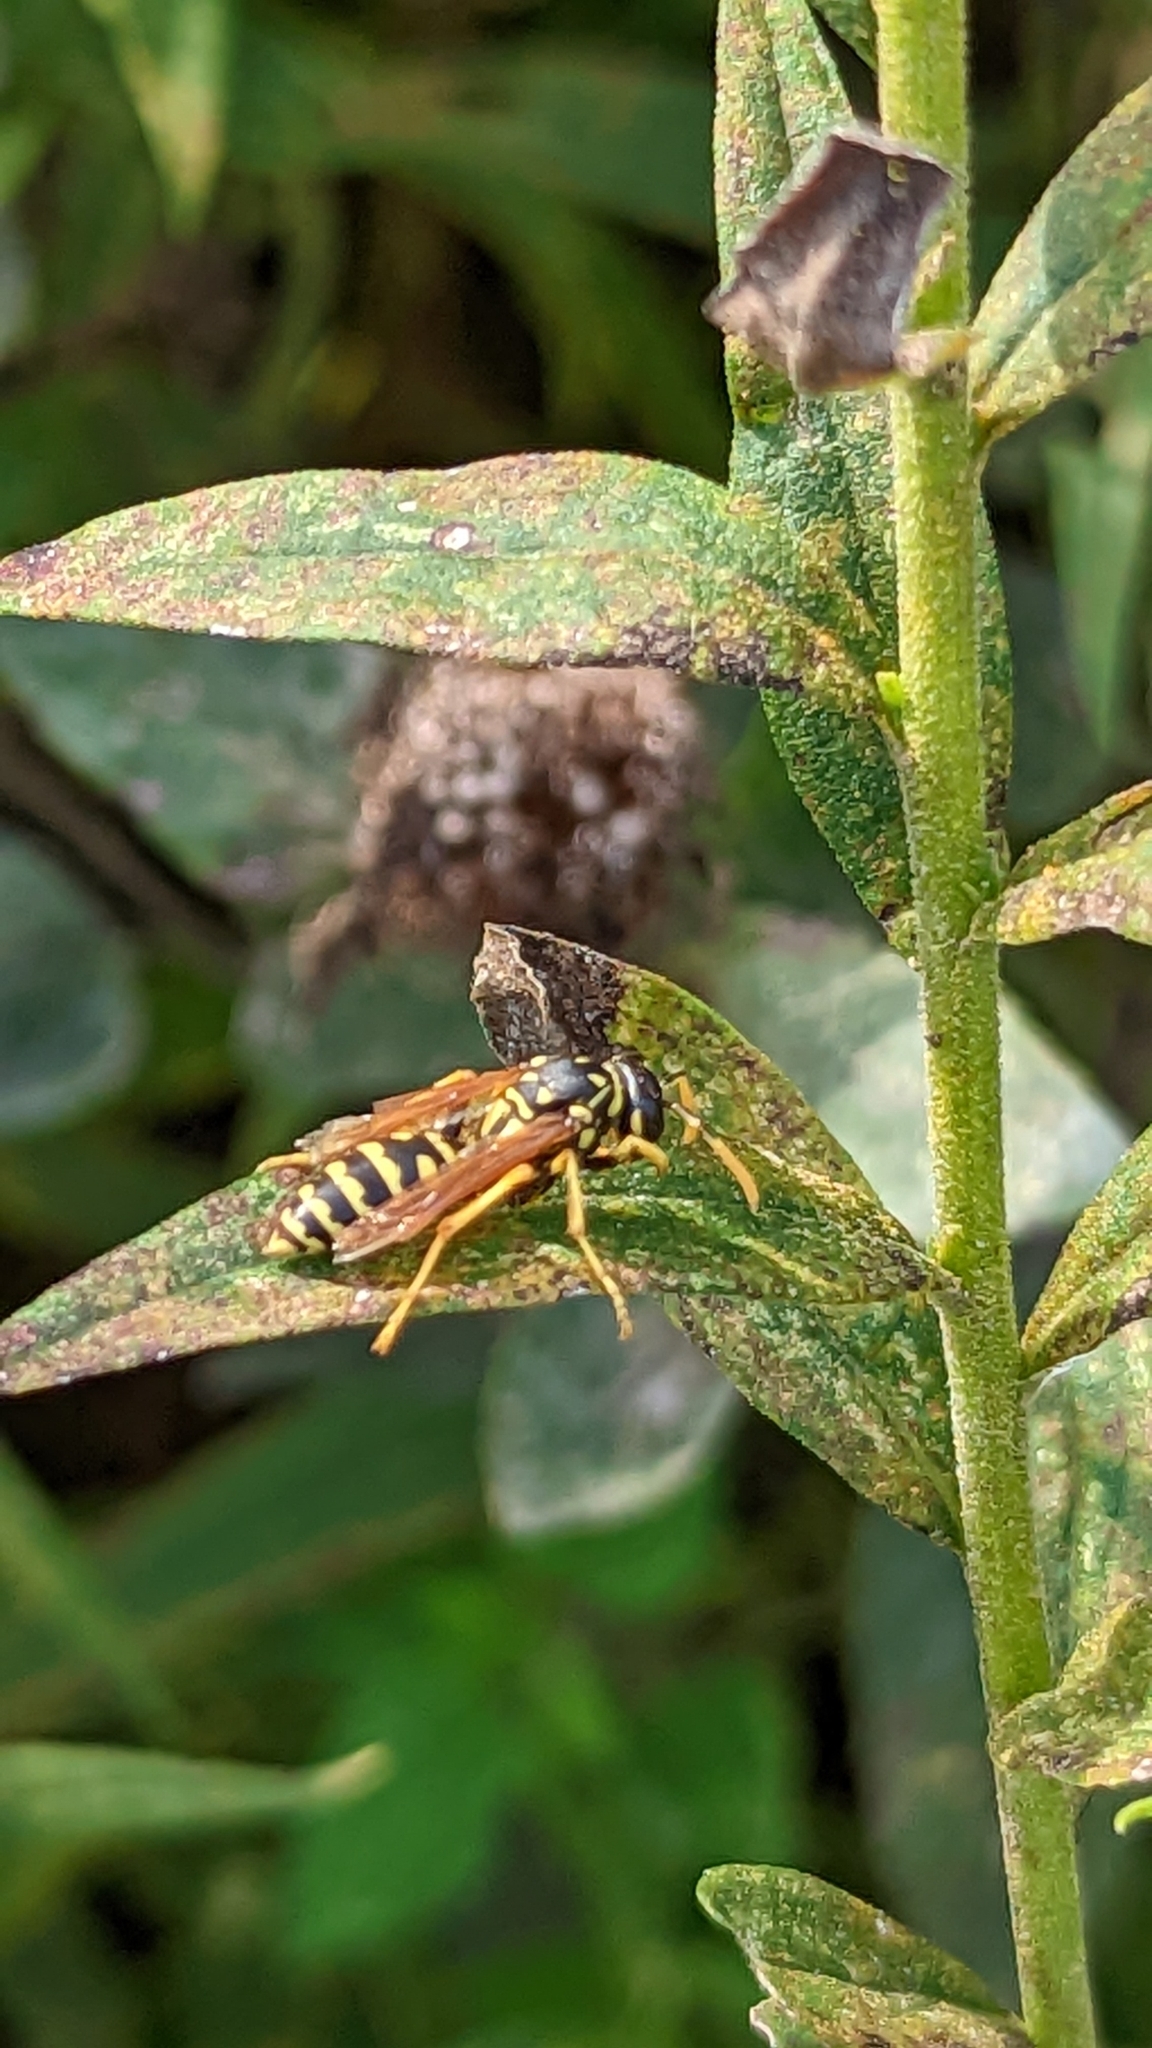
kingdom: Animalia
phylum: Arthropoda
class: Insecta
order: Hymenoptera
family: Eumenidae
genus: Polistes
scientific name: Polistes dominula
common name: Paper wasp
